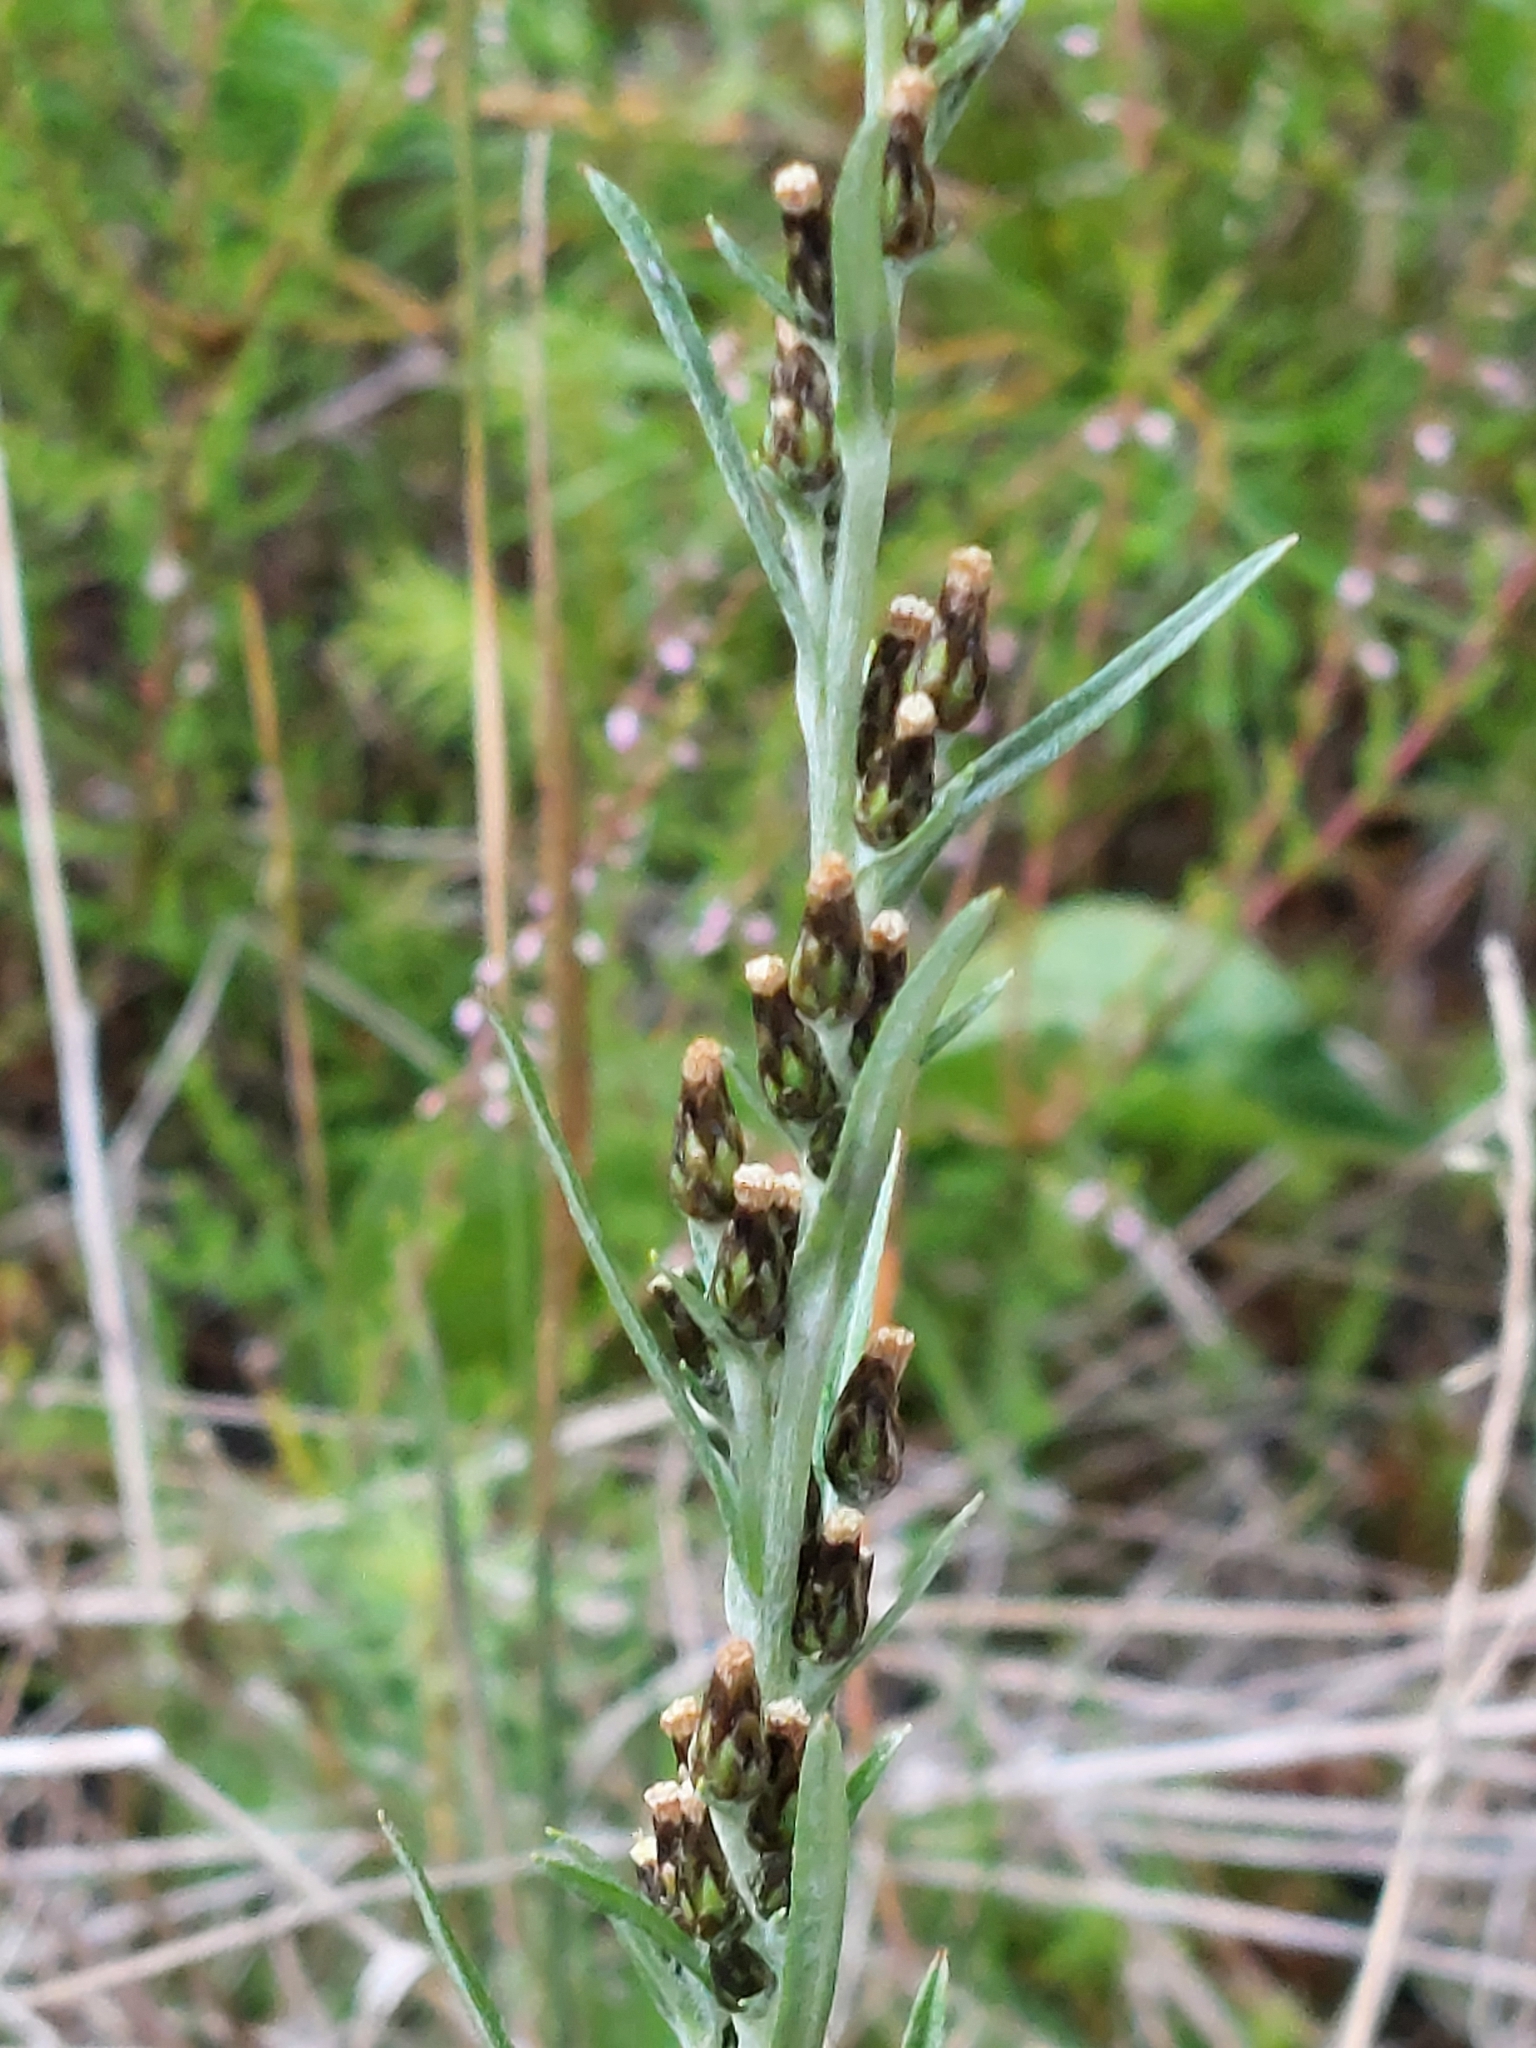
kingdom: Plantae
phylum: Tracheophyta
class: Magnoliopsida
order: Asterales
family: Asteraceae
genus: Omalotheca
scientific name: Omalotheca sylvatica
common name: Heath cudweed
